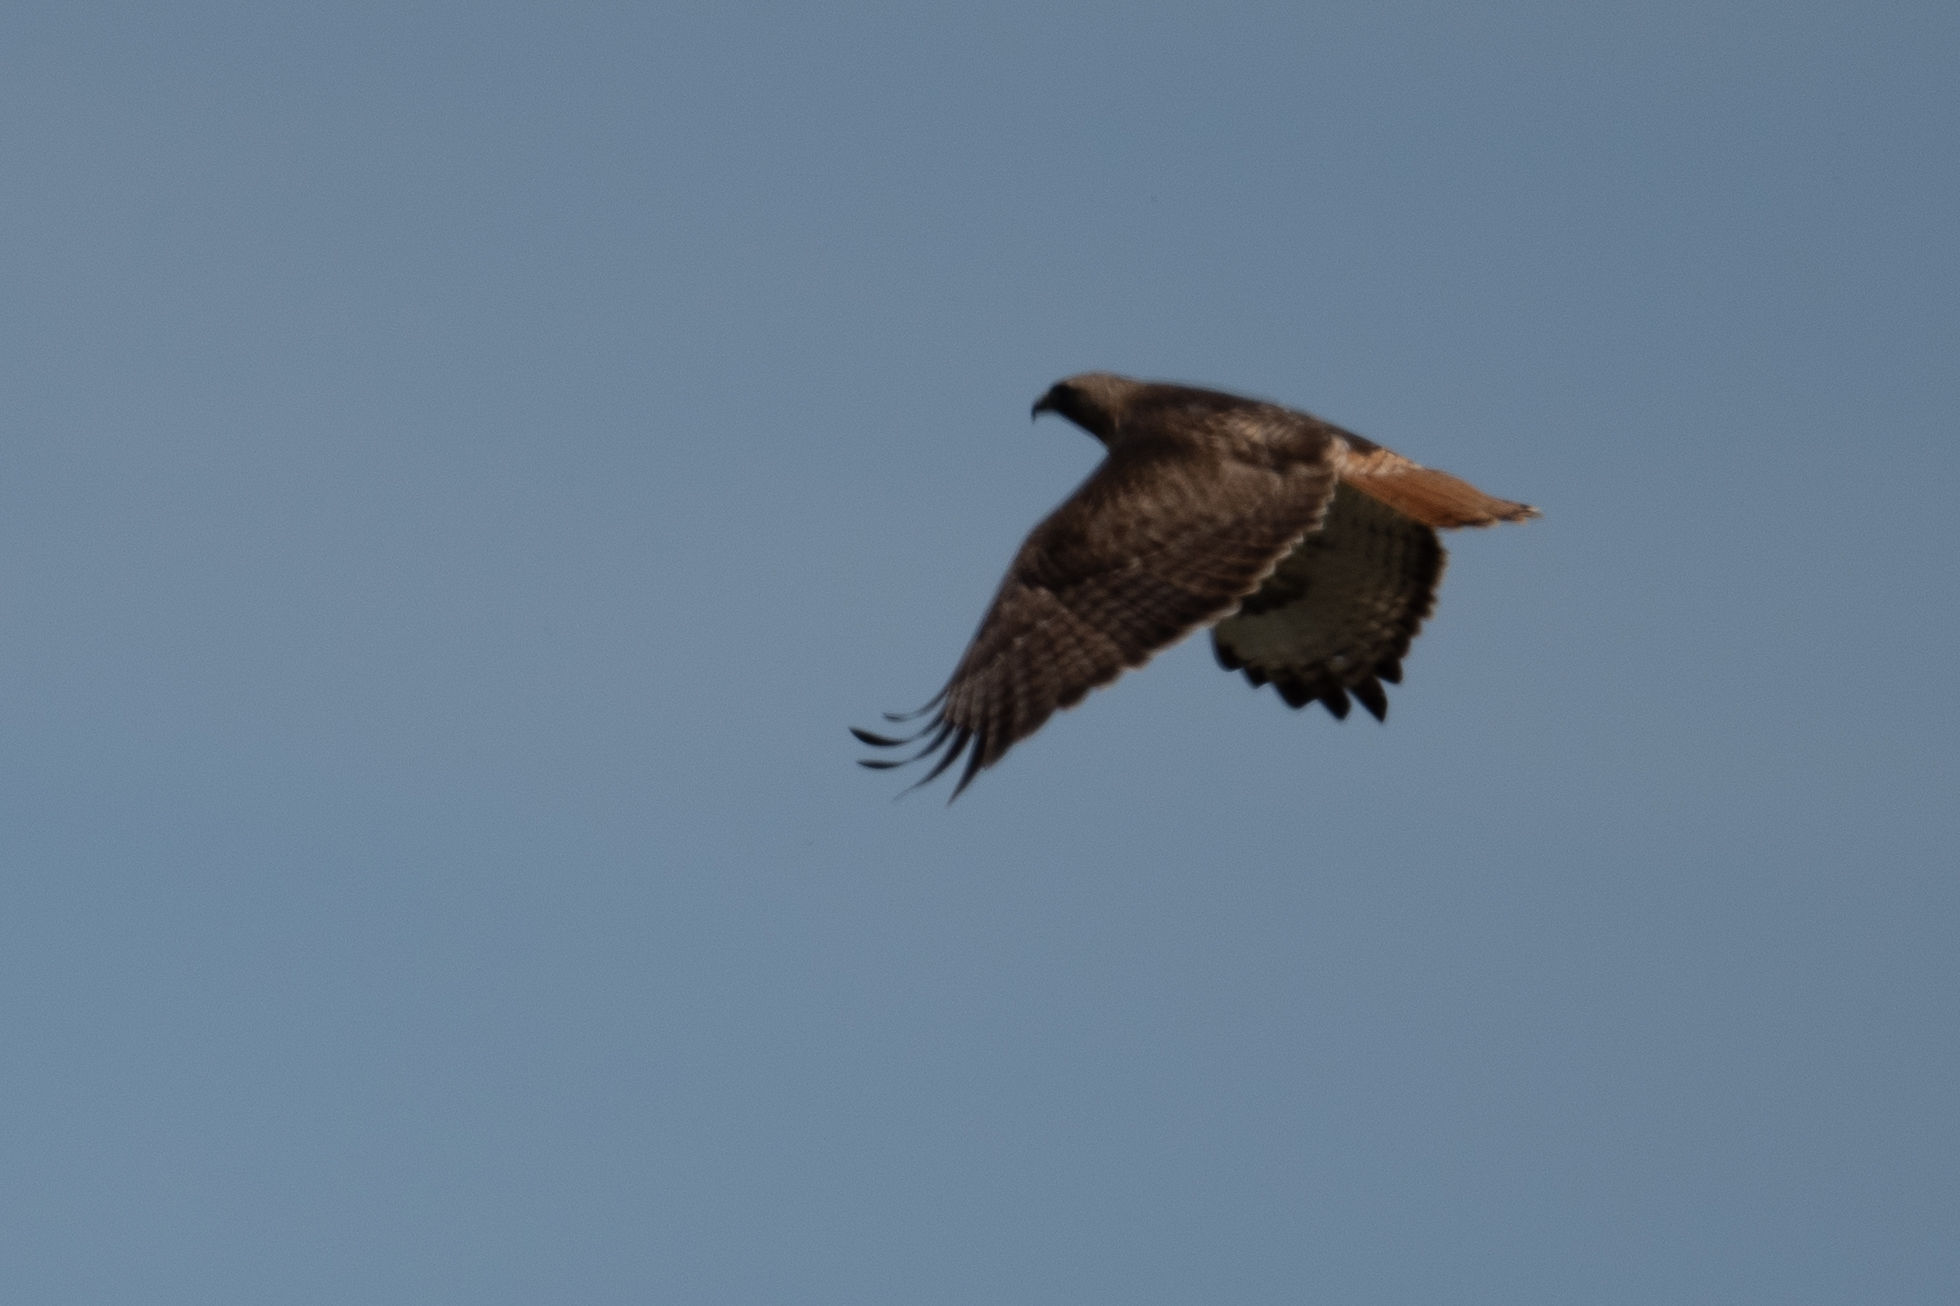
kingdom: Animalia
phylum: Chordata
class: Aves
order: Accipitriformes
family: Accipitridae
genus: Buteo
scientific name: Buteo jamaicensis
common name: Red-tailed hawk
